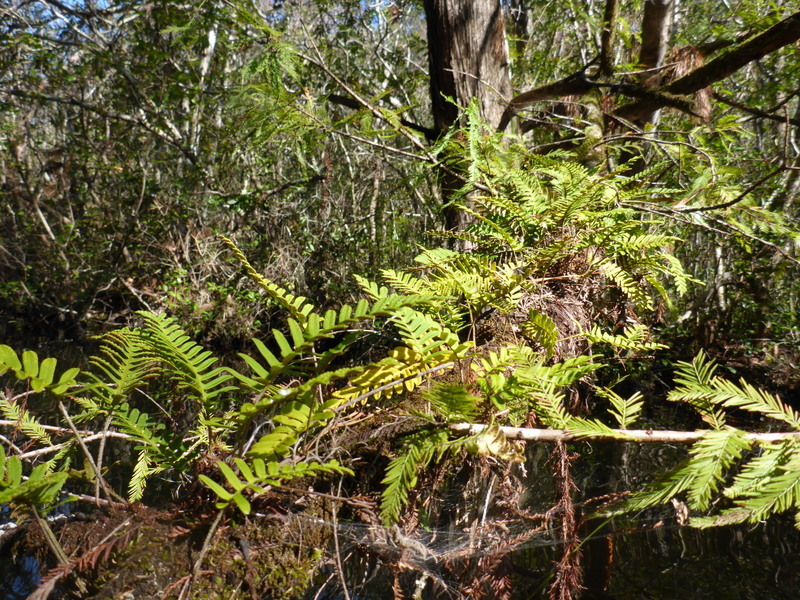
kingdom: Plantae
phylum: Tracheophyta
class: Polypodiopsida
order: Polypodiales
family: Polypodiaceae
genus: Pleopeltis
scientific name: Pleopeltis michauxiana
